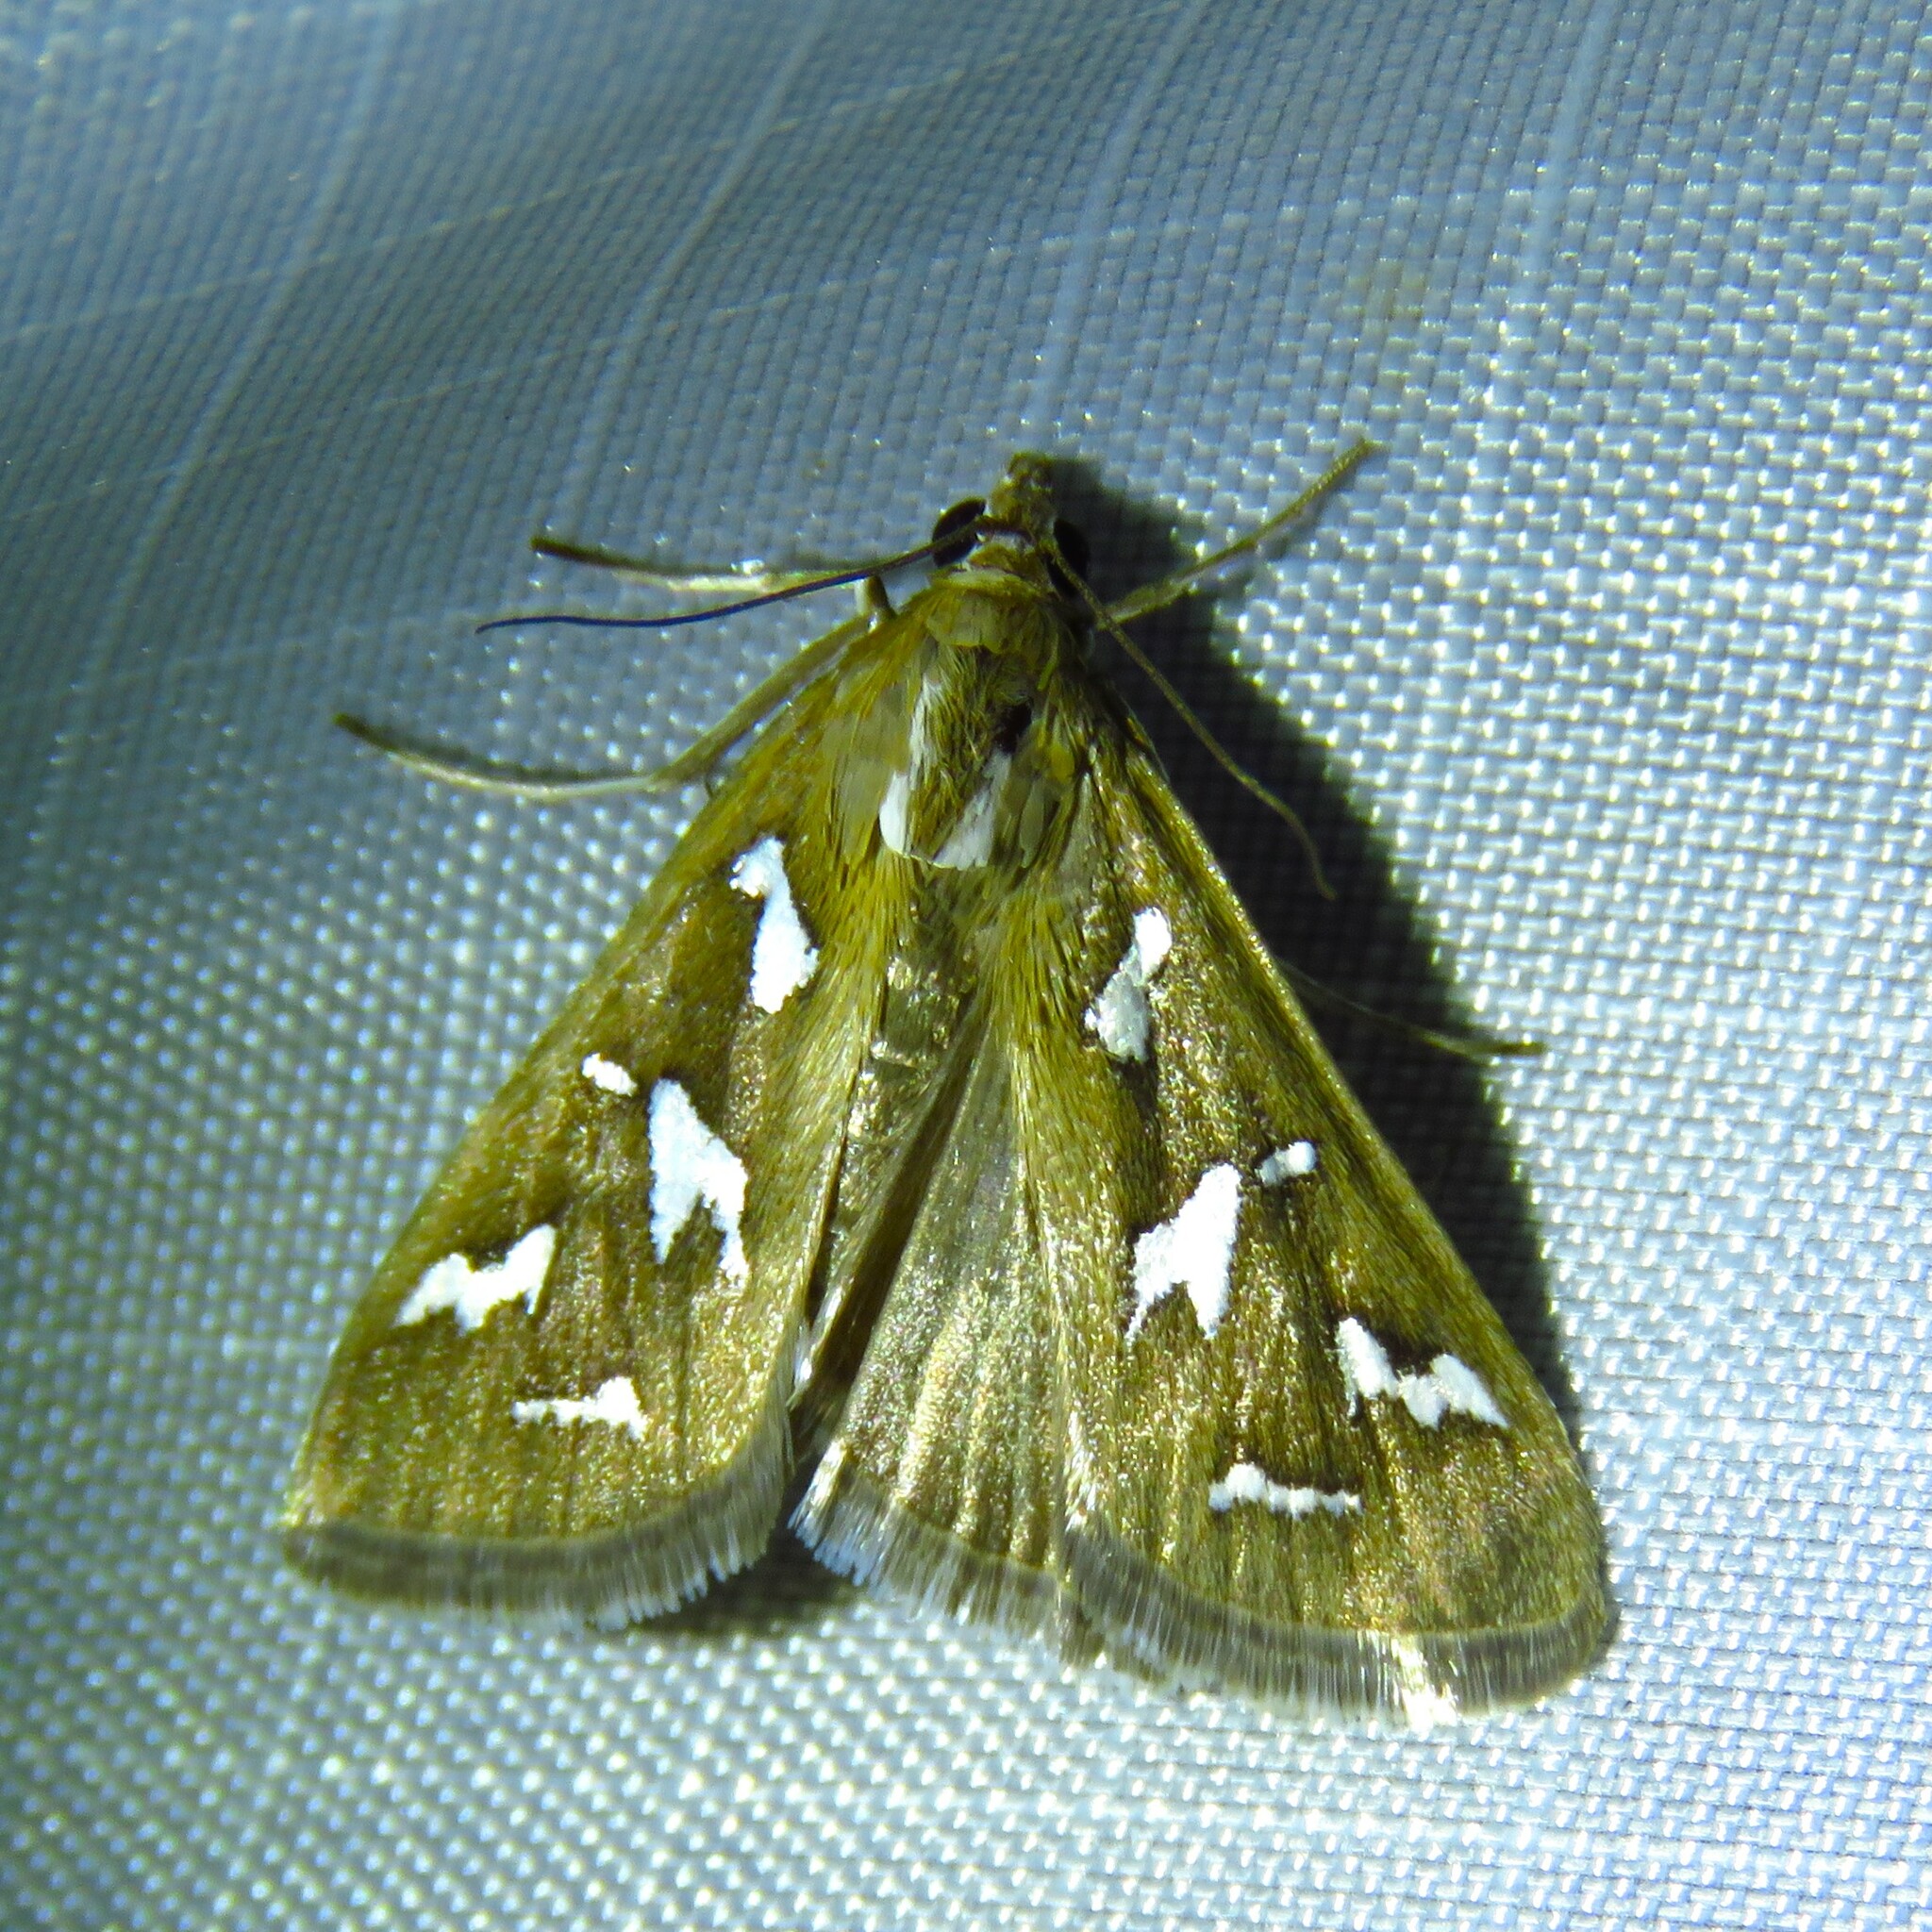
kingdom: Animalia
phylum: Arthropoda
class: Insecta
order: Lepidoptera
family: Crambidae
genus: Diastictis
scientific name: Diastictis fracturalis
